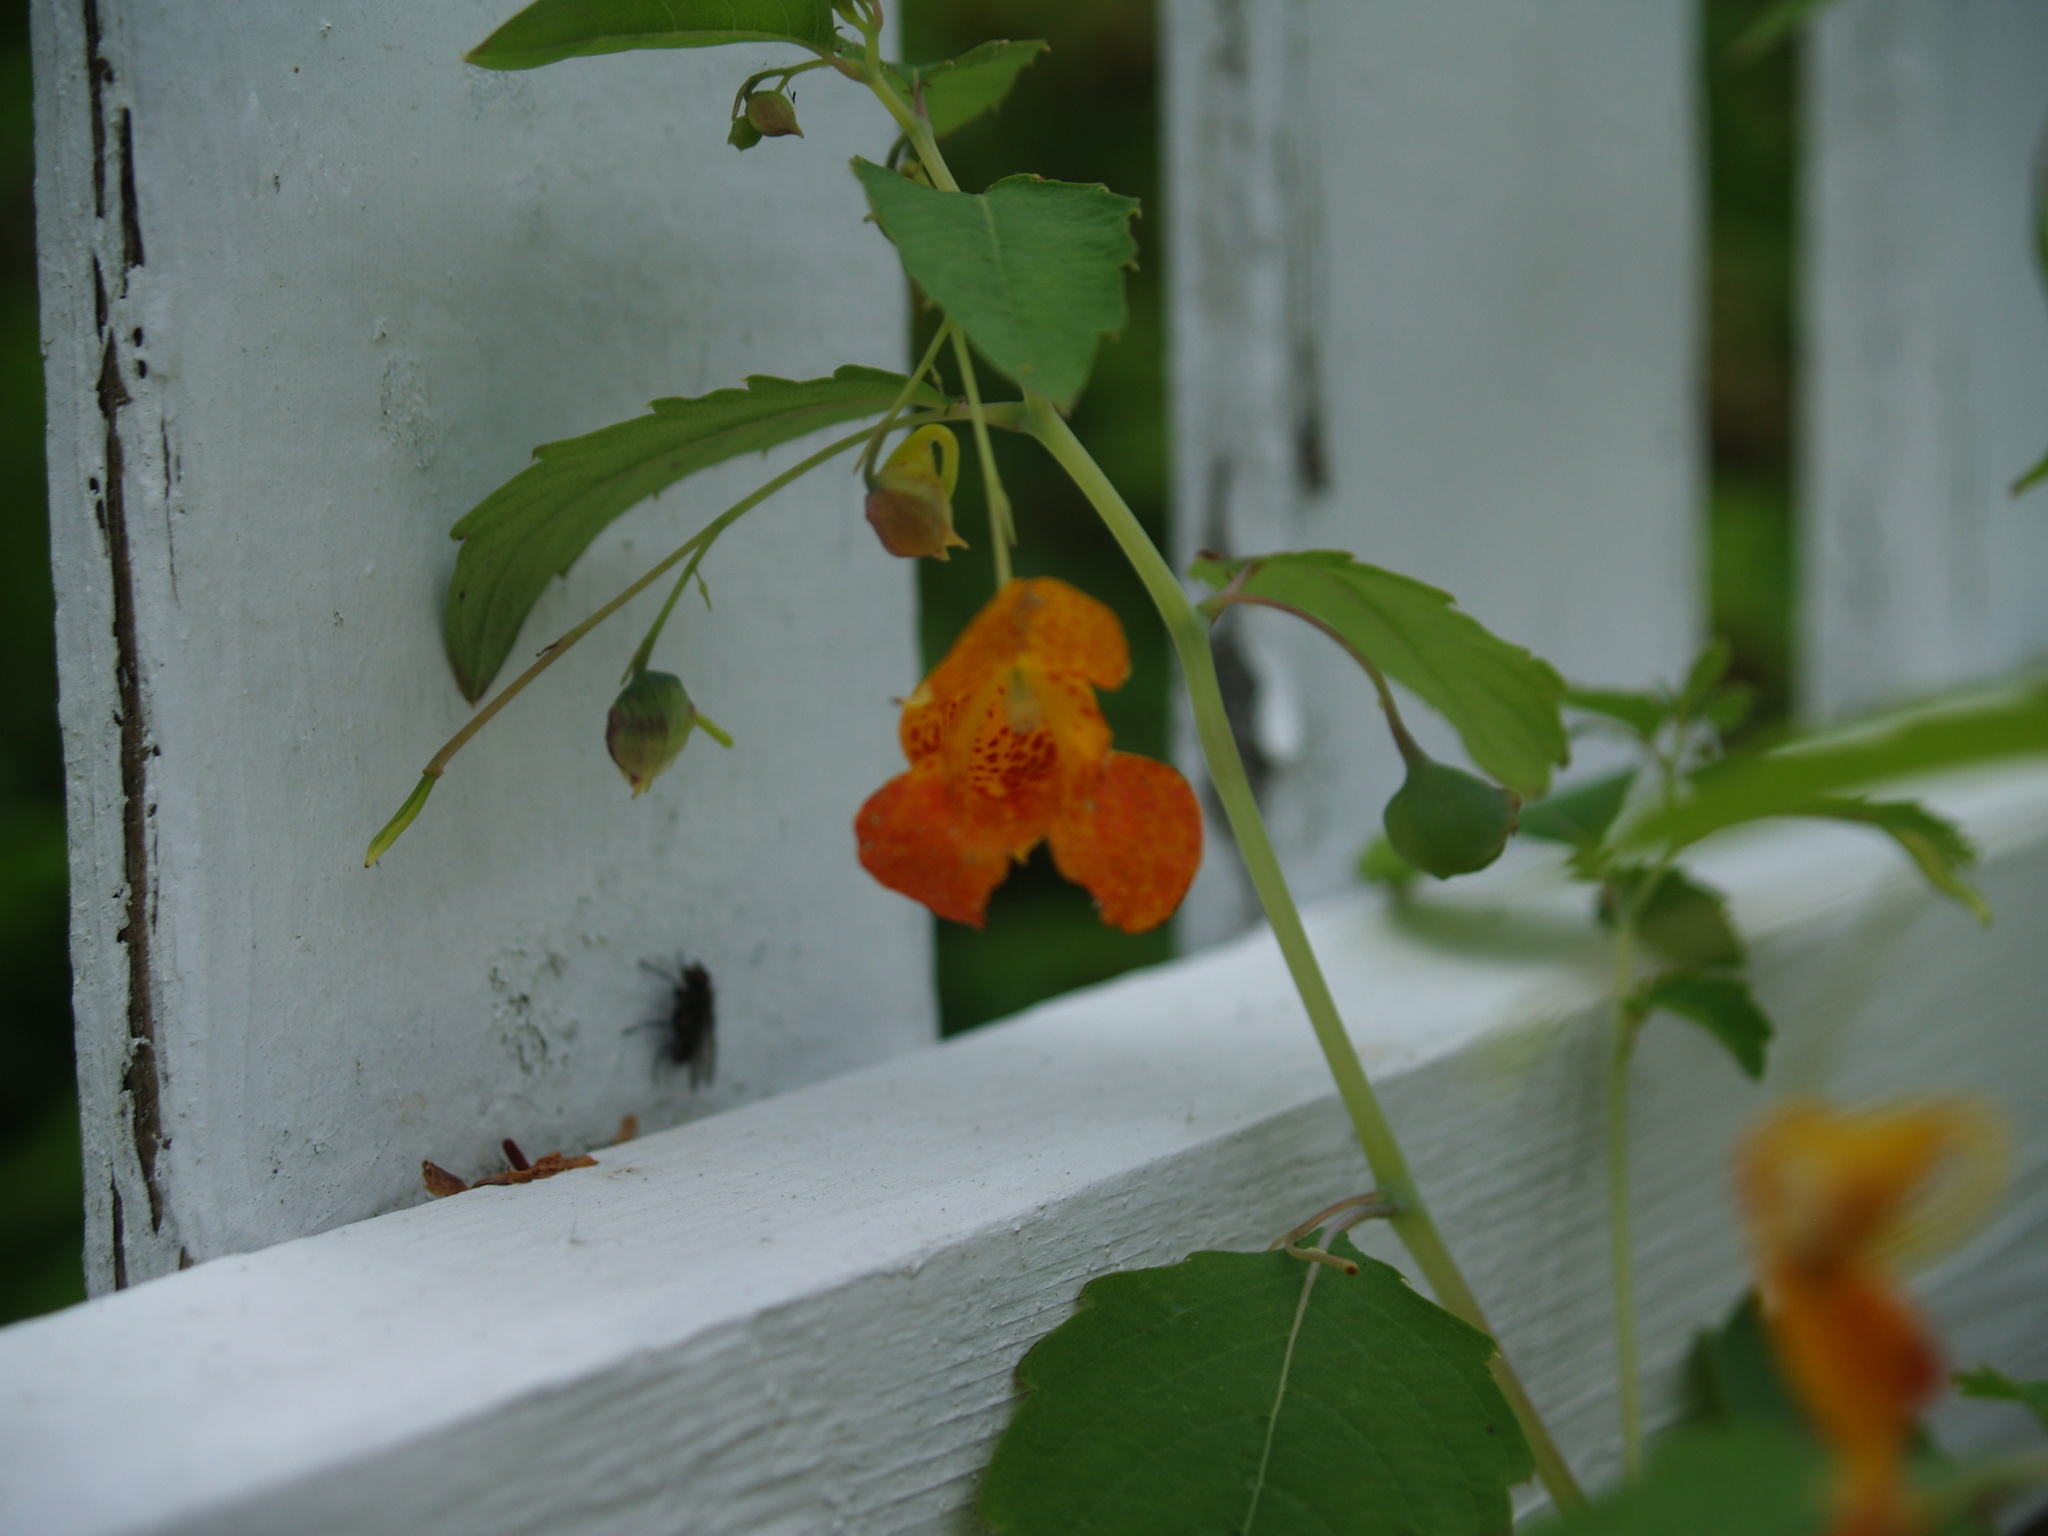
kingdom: Plantae
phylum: Tracheophyta
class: Magnoliopsida
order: Ericales
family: Balsaminaceae
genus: Impatiens
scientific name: Impatiens capensis
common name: Orange balsam
